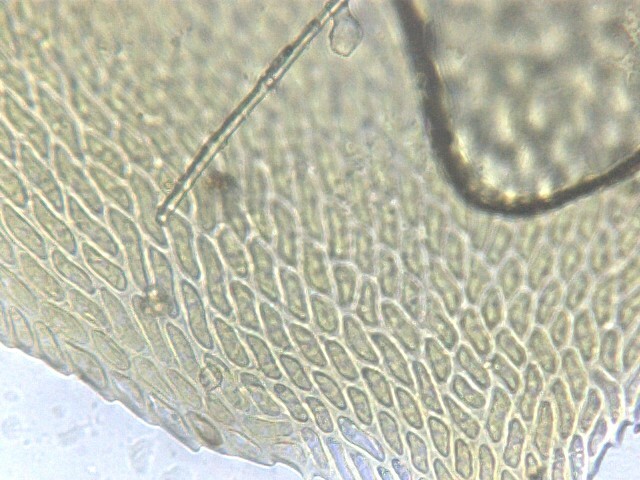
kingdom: Plantae
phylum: Bryophyta
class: Bryopsida
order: Hypnales
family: Neckeraceae
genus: Alleniella
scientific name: Alleniella complanata
